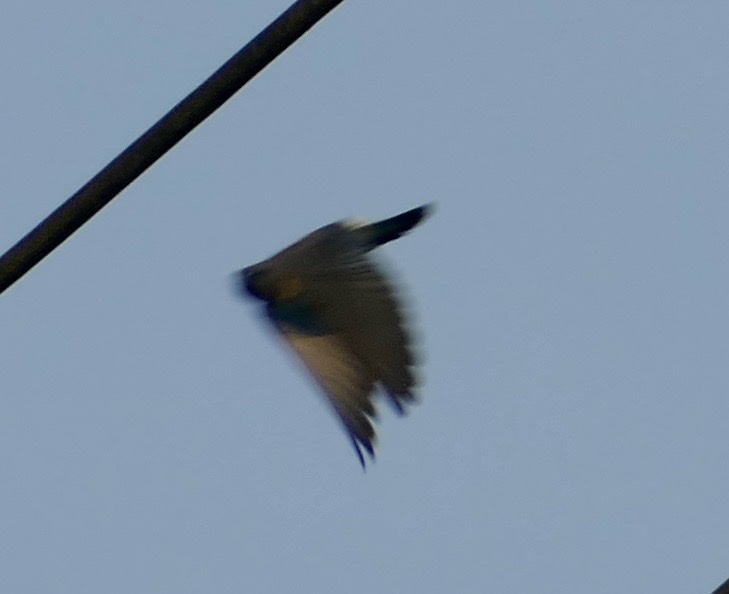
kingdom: Animalia
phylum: Chordata
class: Aves
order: Passeriformes
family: Artamidae
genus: Artamus
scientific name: Artamus leucoryn
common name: White-breasted woodswallow
